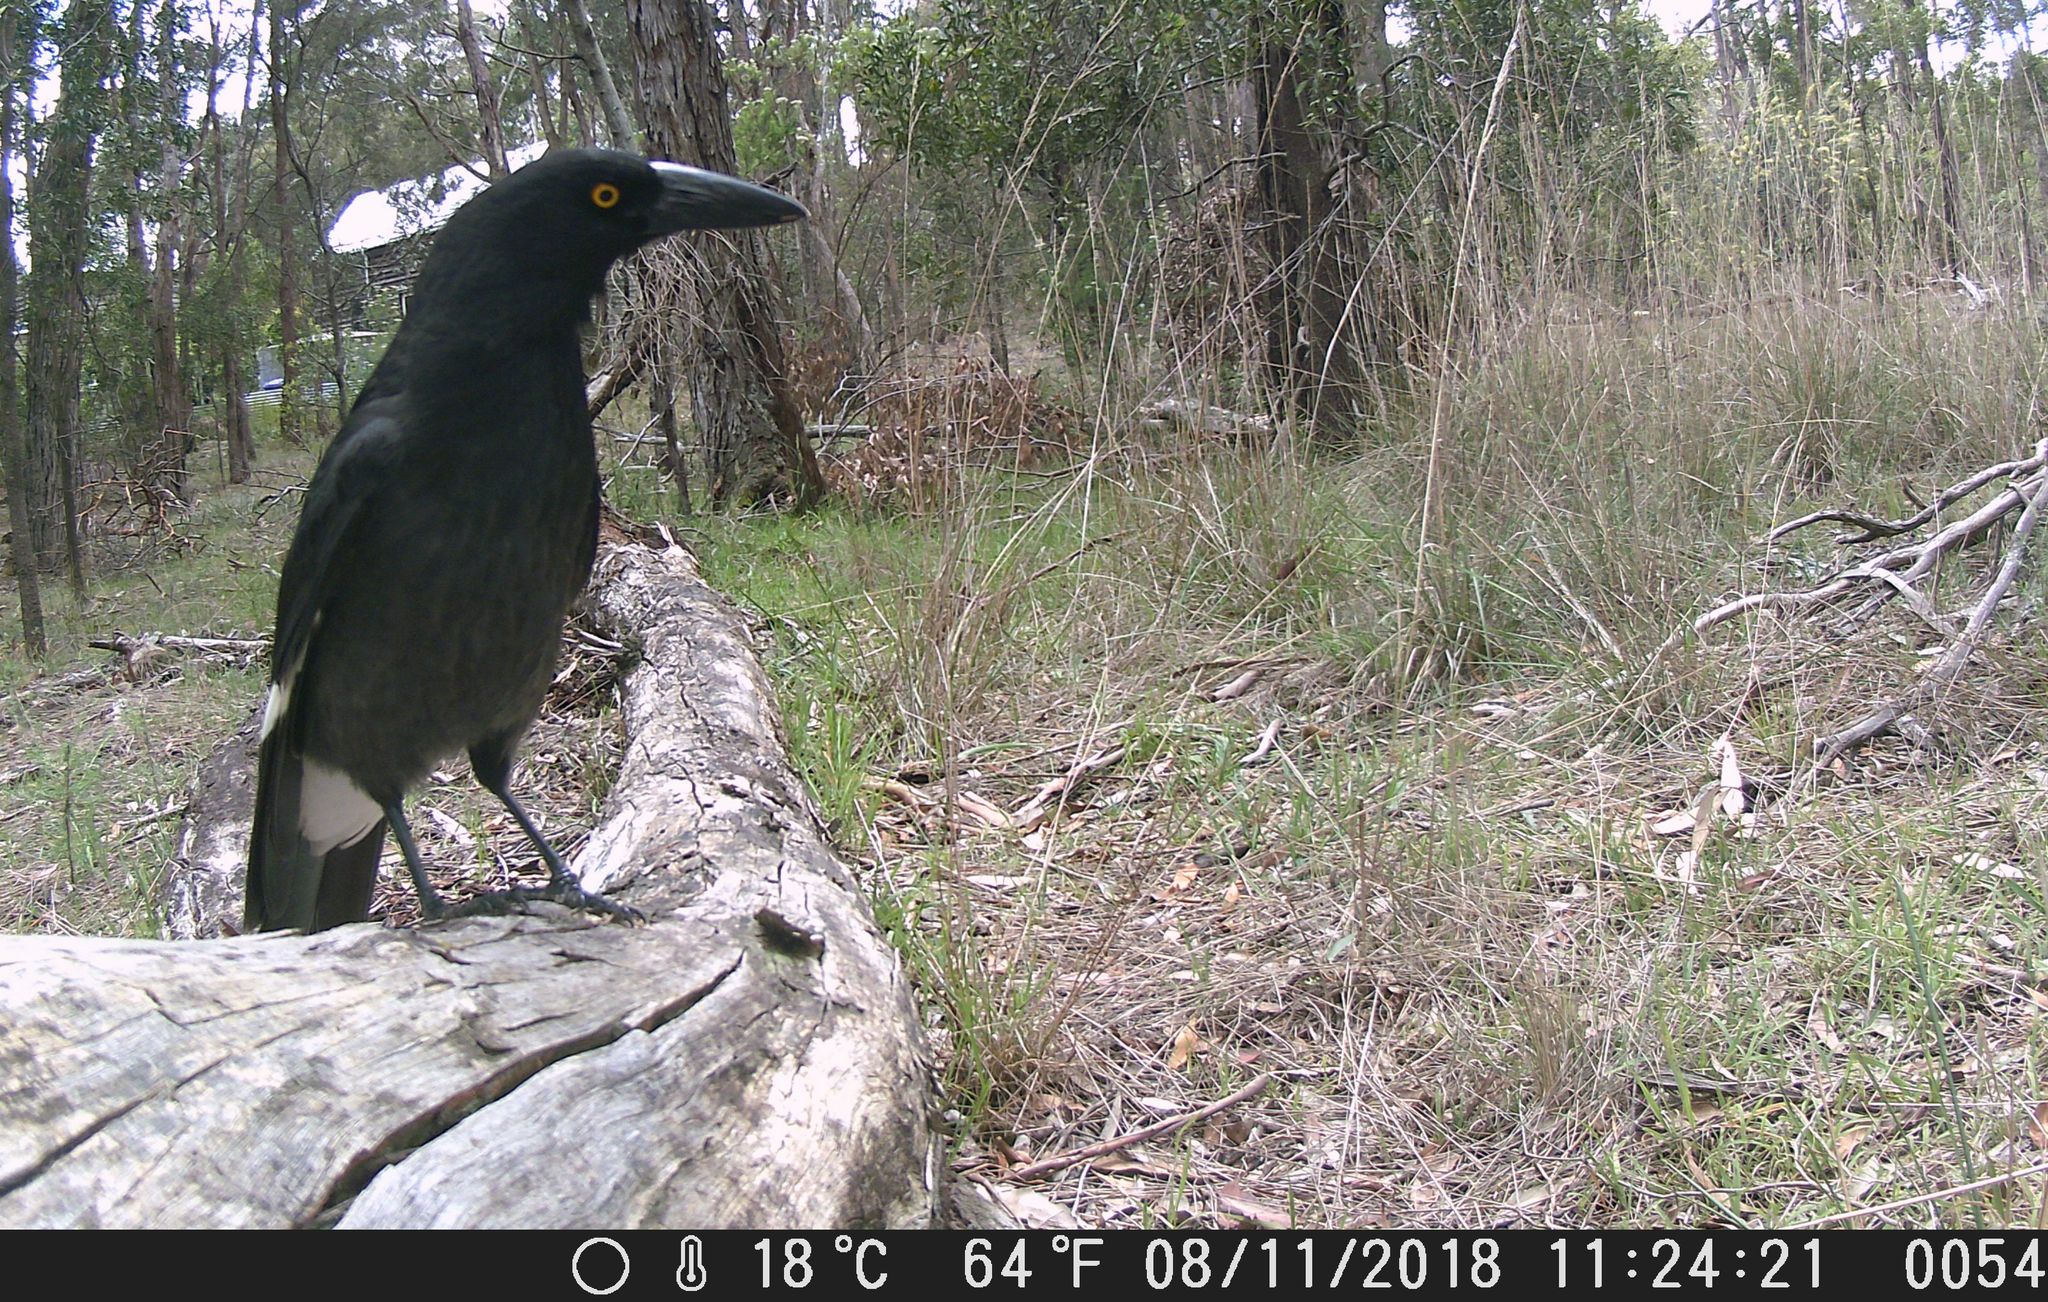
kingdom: Animalia
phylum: Chordata
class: Aves
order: Passeriformes
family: Cracticidae
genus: Strepera
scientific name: Strepera graculina
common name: Pied currawong
